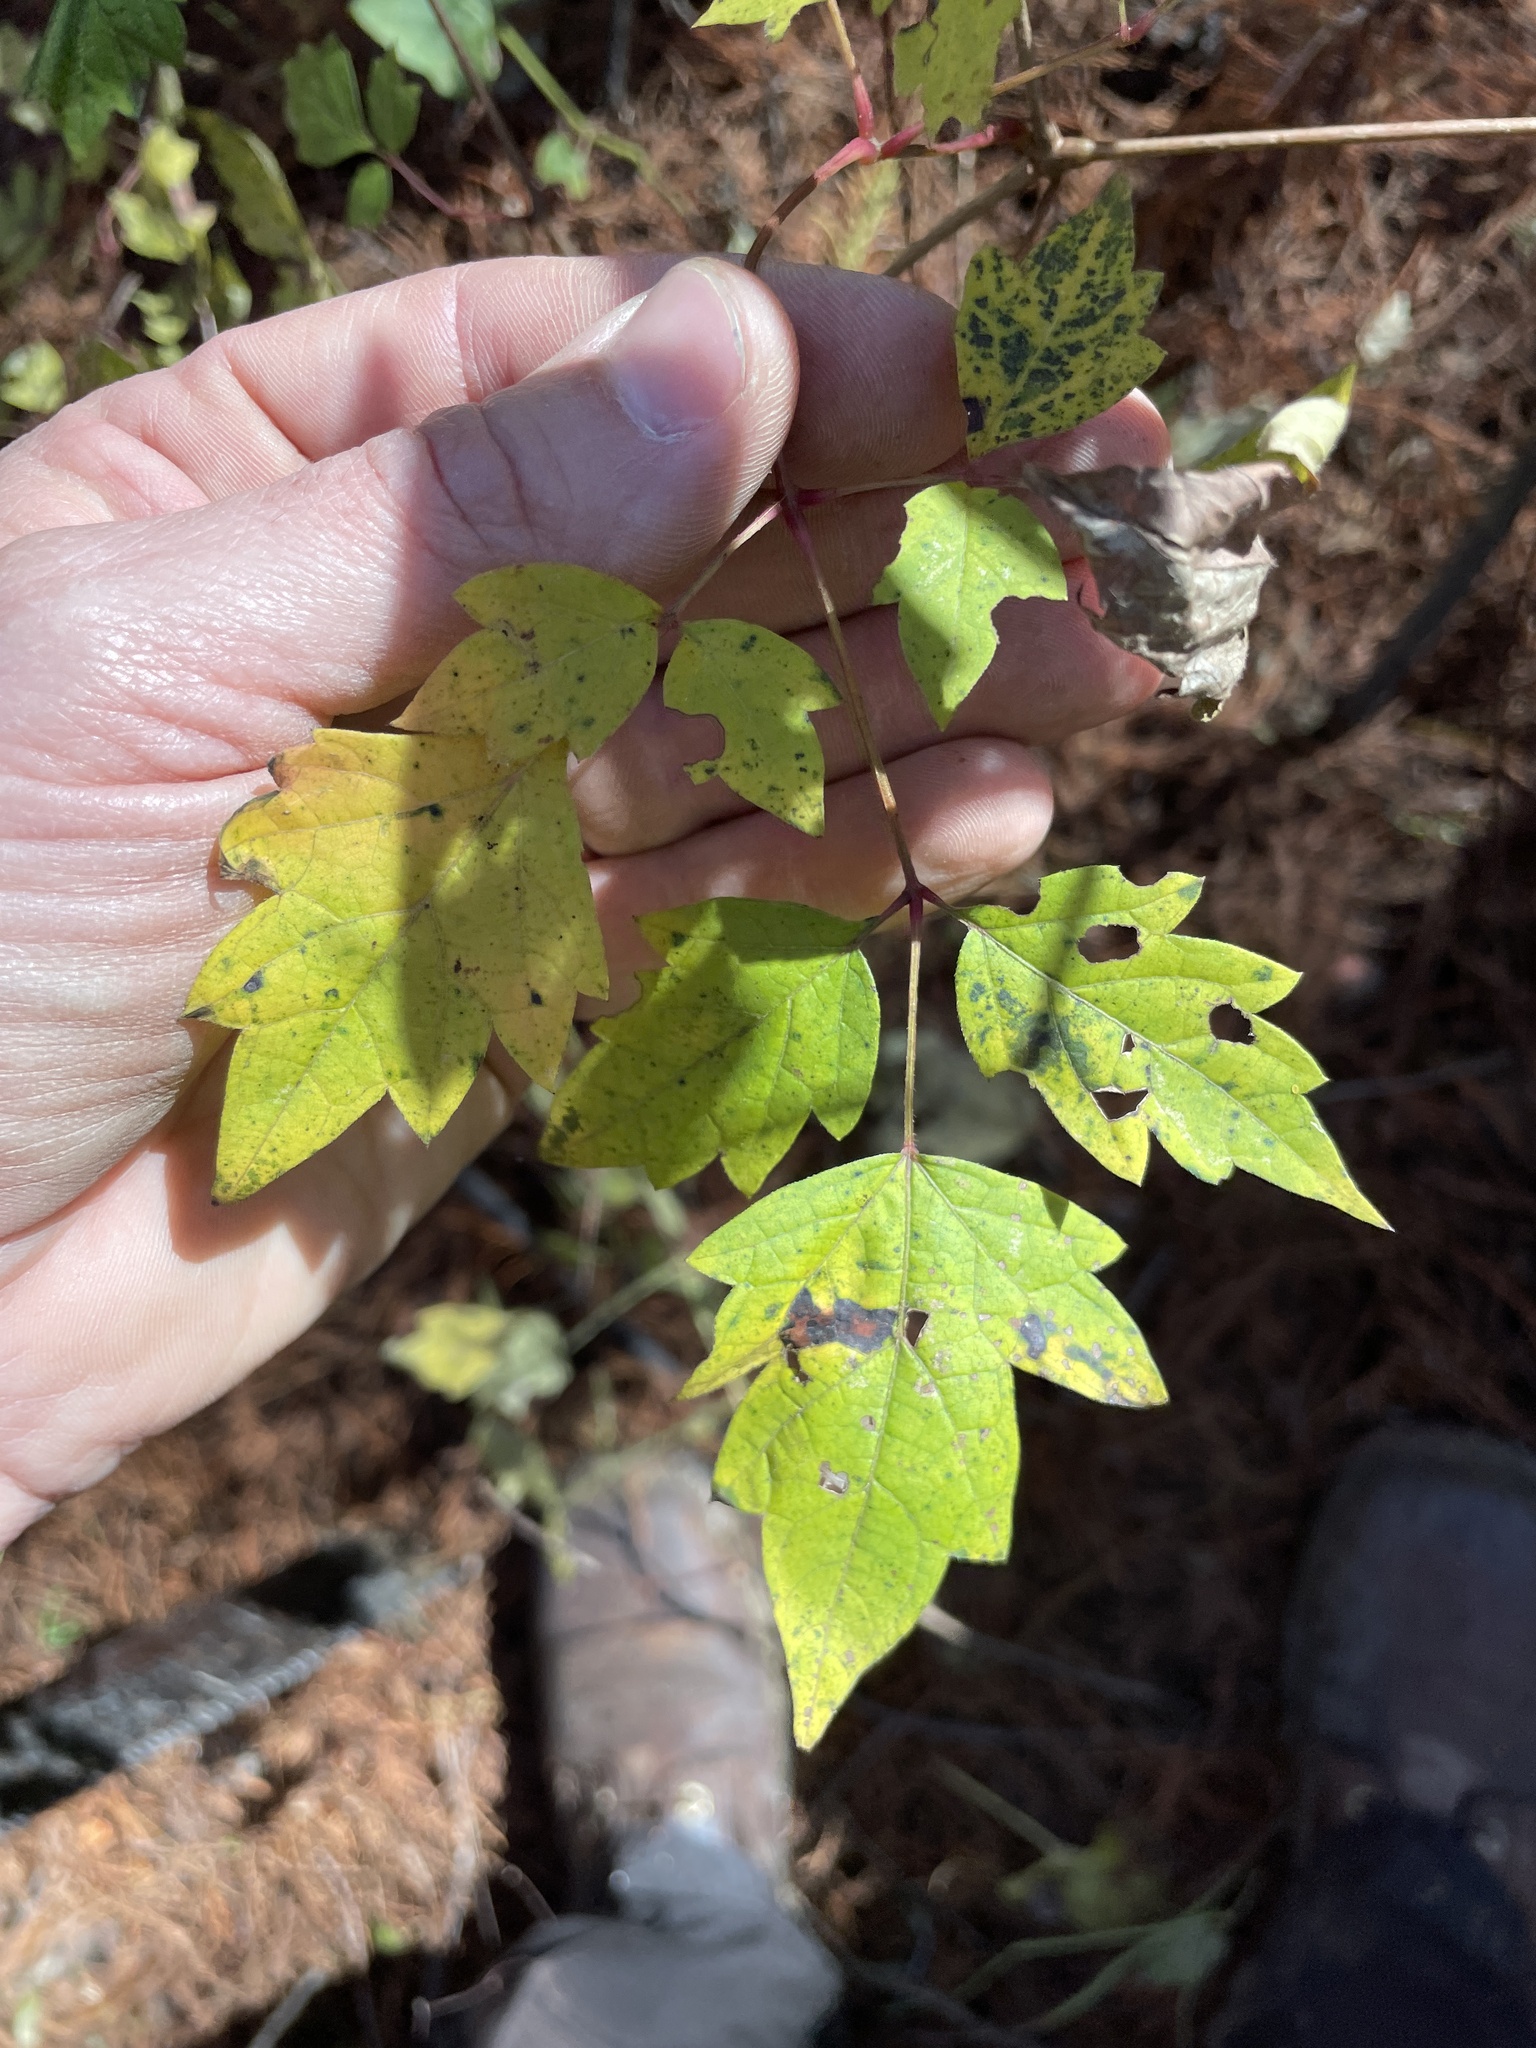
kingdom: Plantae
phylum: Tracheophyta
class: Magnoliopsida
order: Vitales
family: Vitaceae
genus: Nekemias
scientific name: Nekemias arborea
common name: Peppervine
